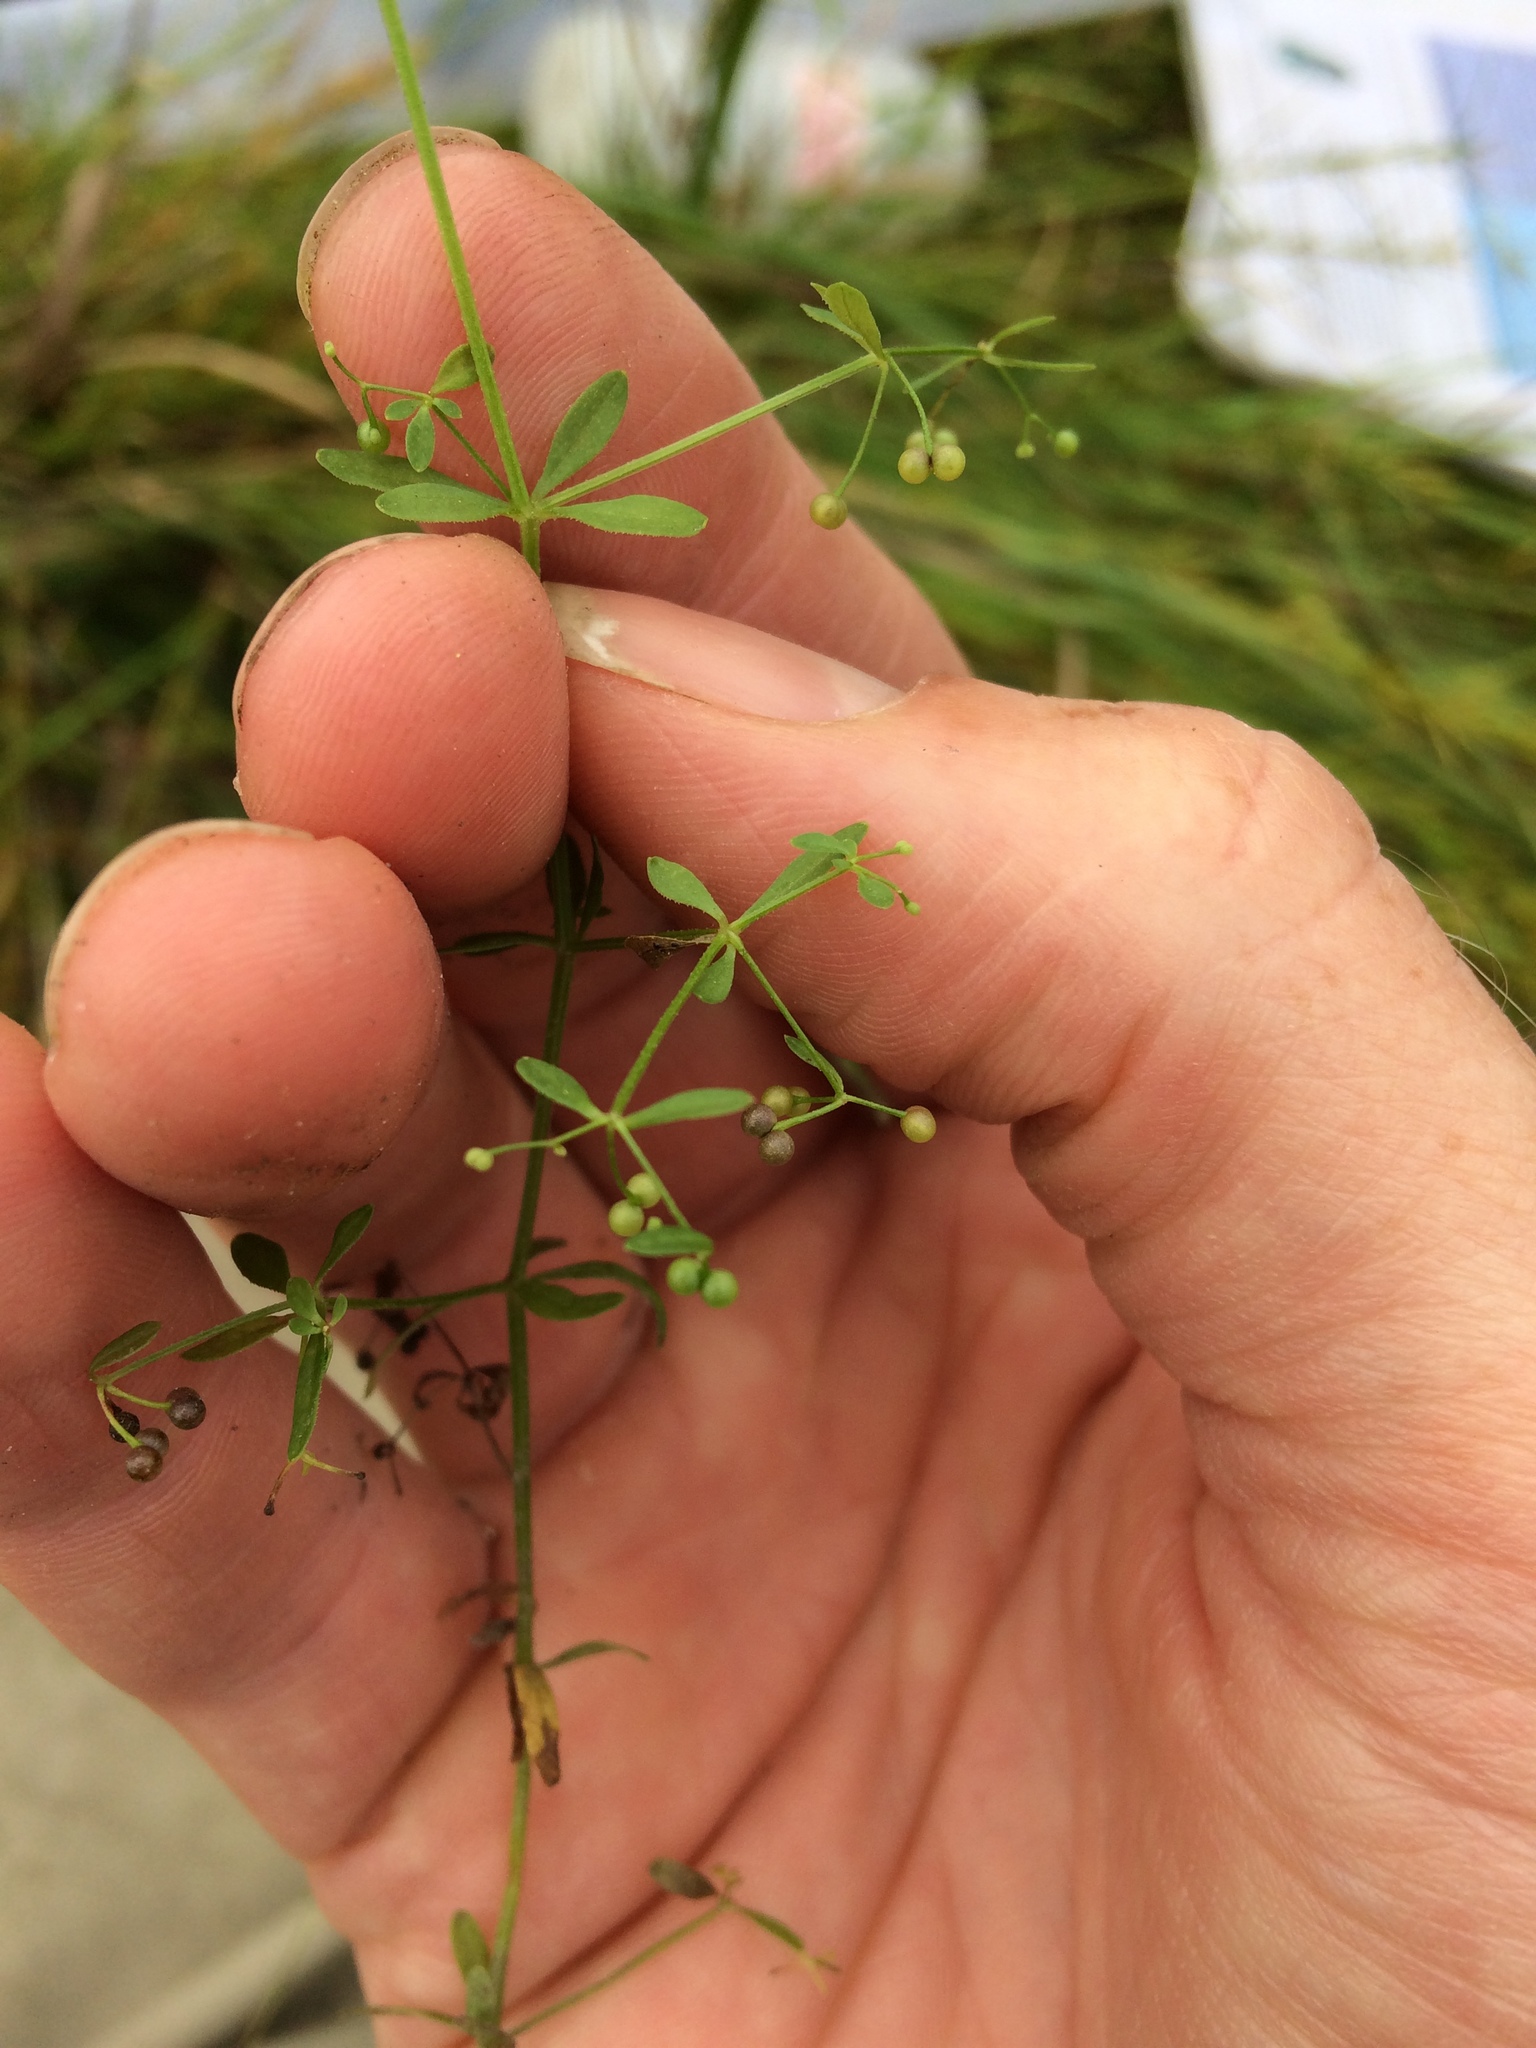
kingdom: Plantae
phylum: Tracheophyta
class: Magnoliopsida
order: Gentianales
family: Rubiaceae
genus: Galium
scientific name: Galium palustre
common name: Common marsh-bedstraw
